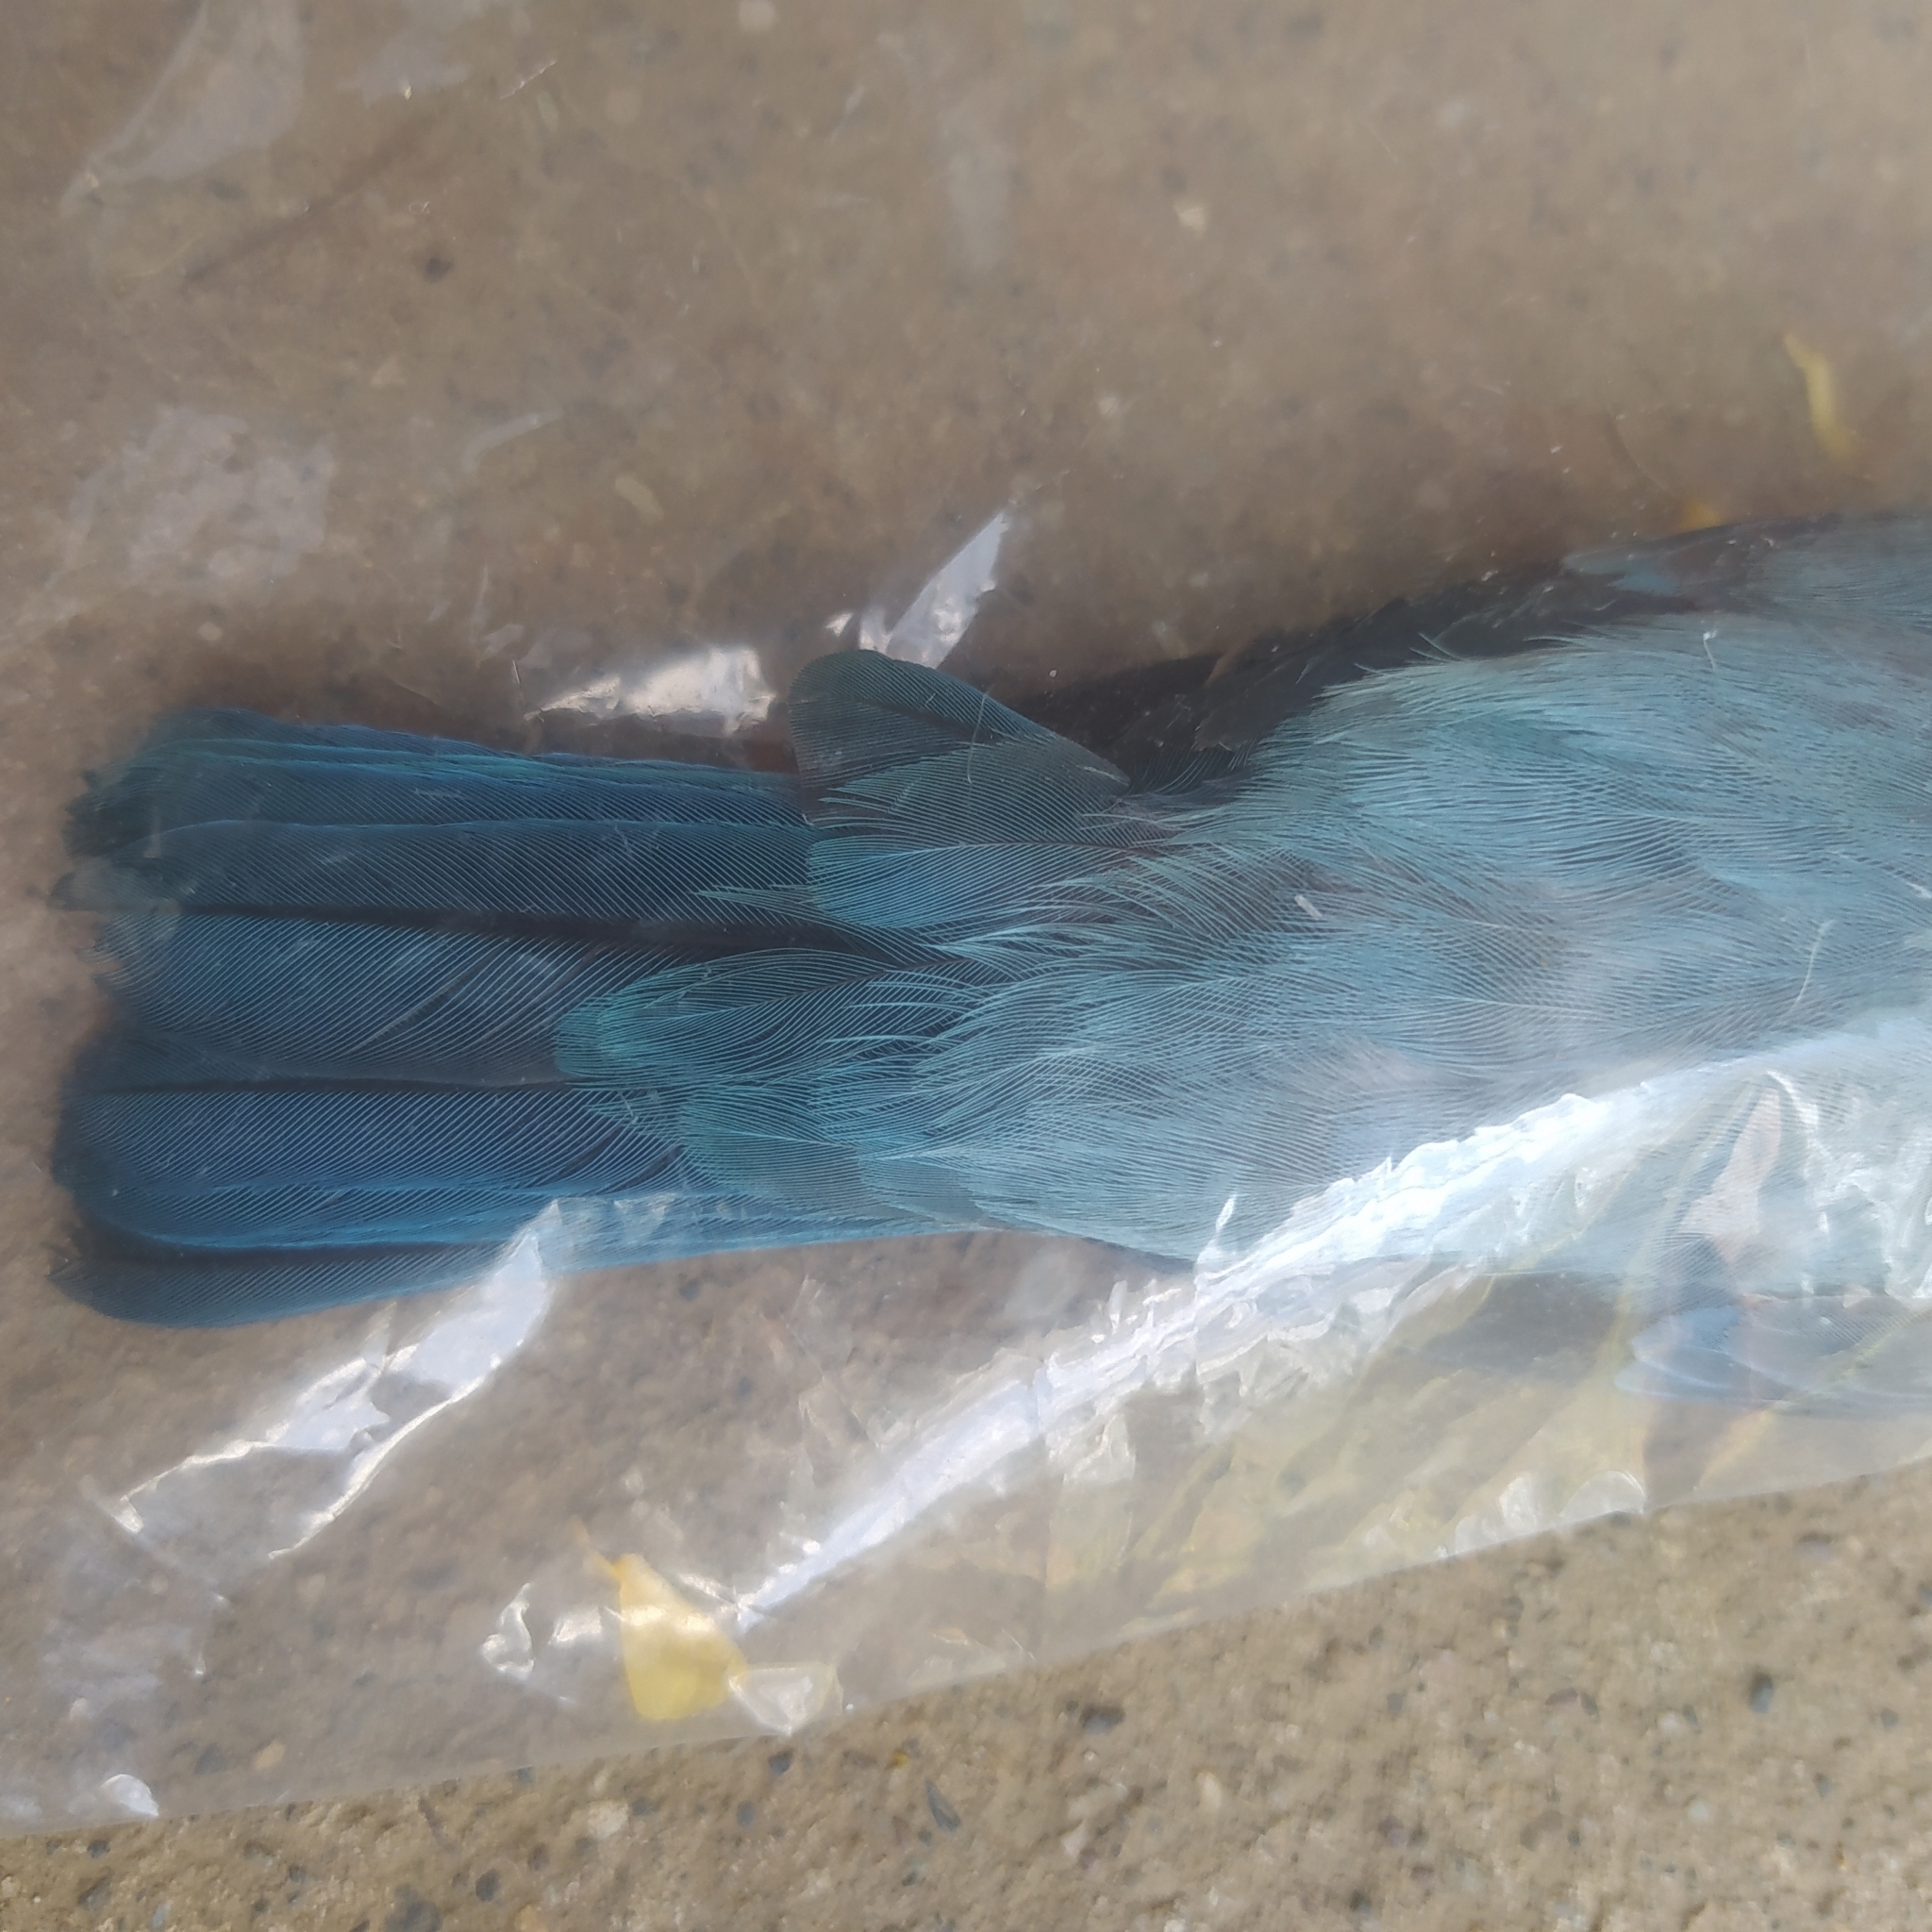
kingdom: Animalia
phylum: Chordata
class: Aves
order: Passeriformes
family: Thraupidae
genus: Thraupis
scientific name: Thraupis episcopus
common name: Blue-grey tanager
